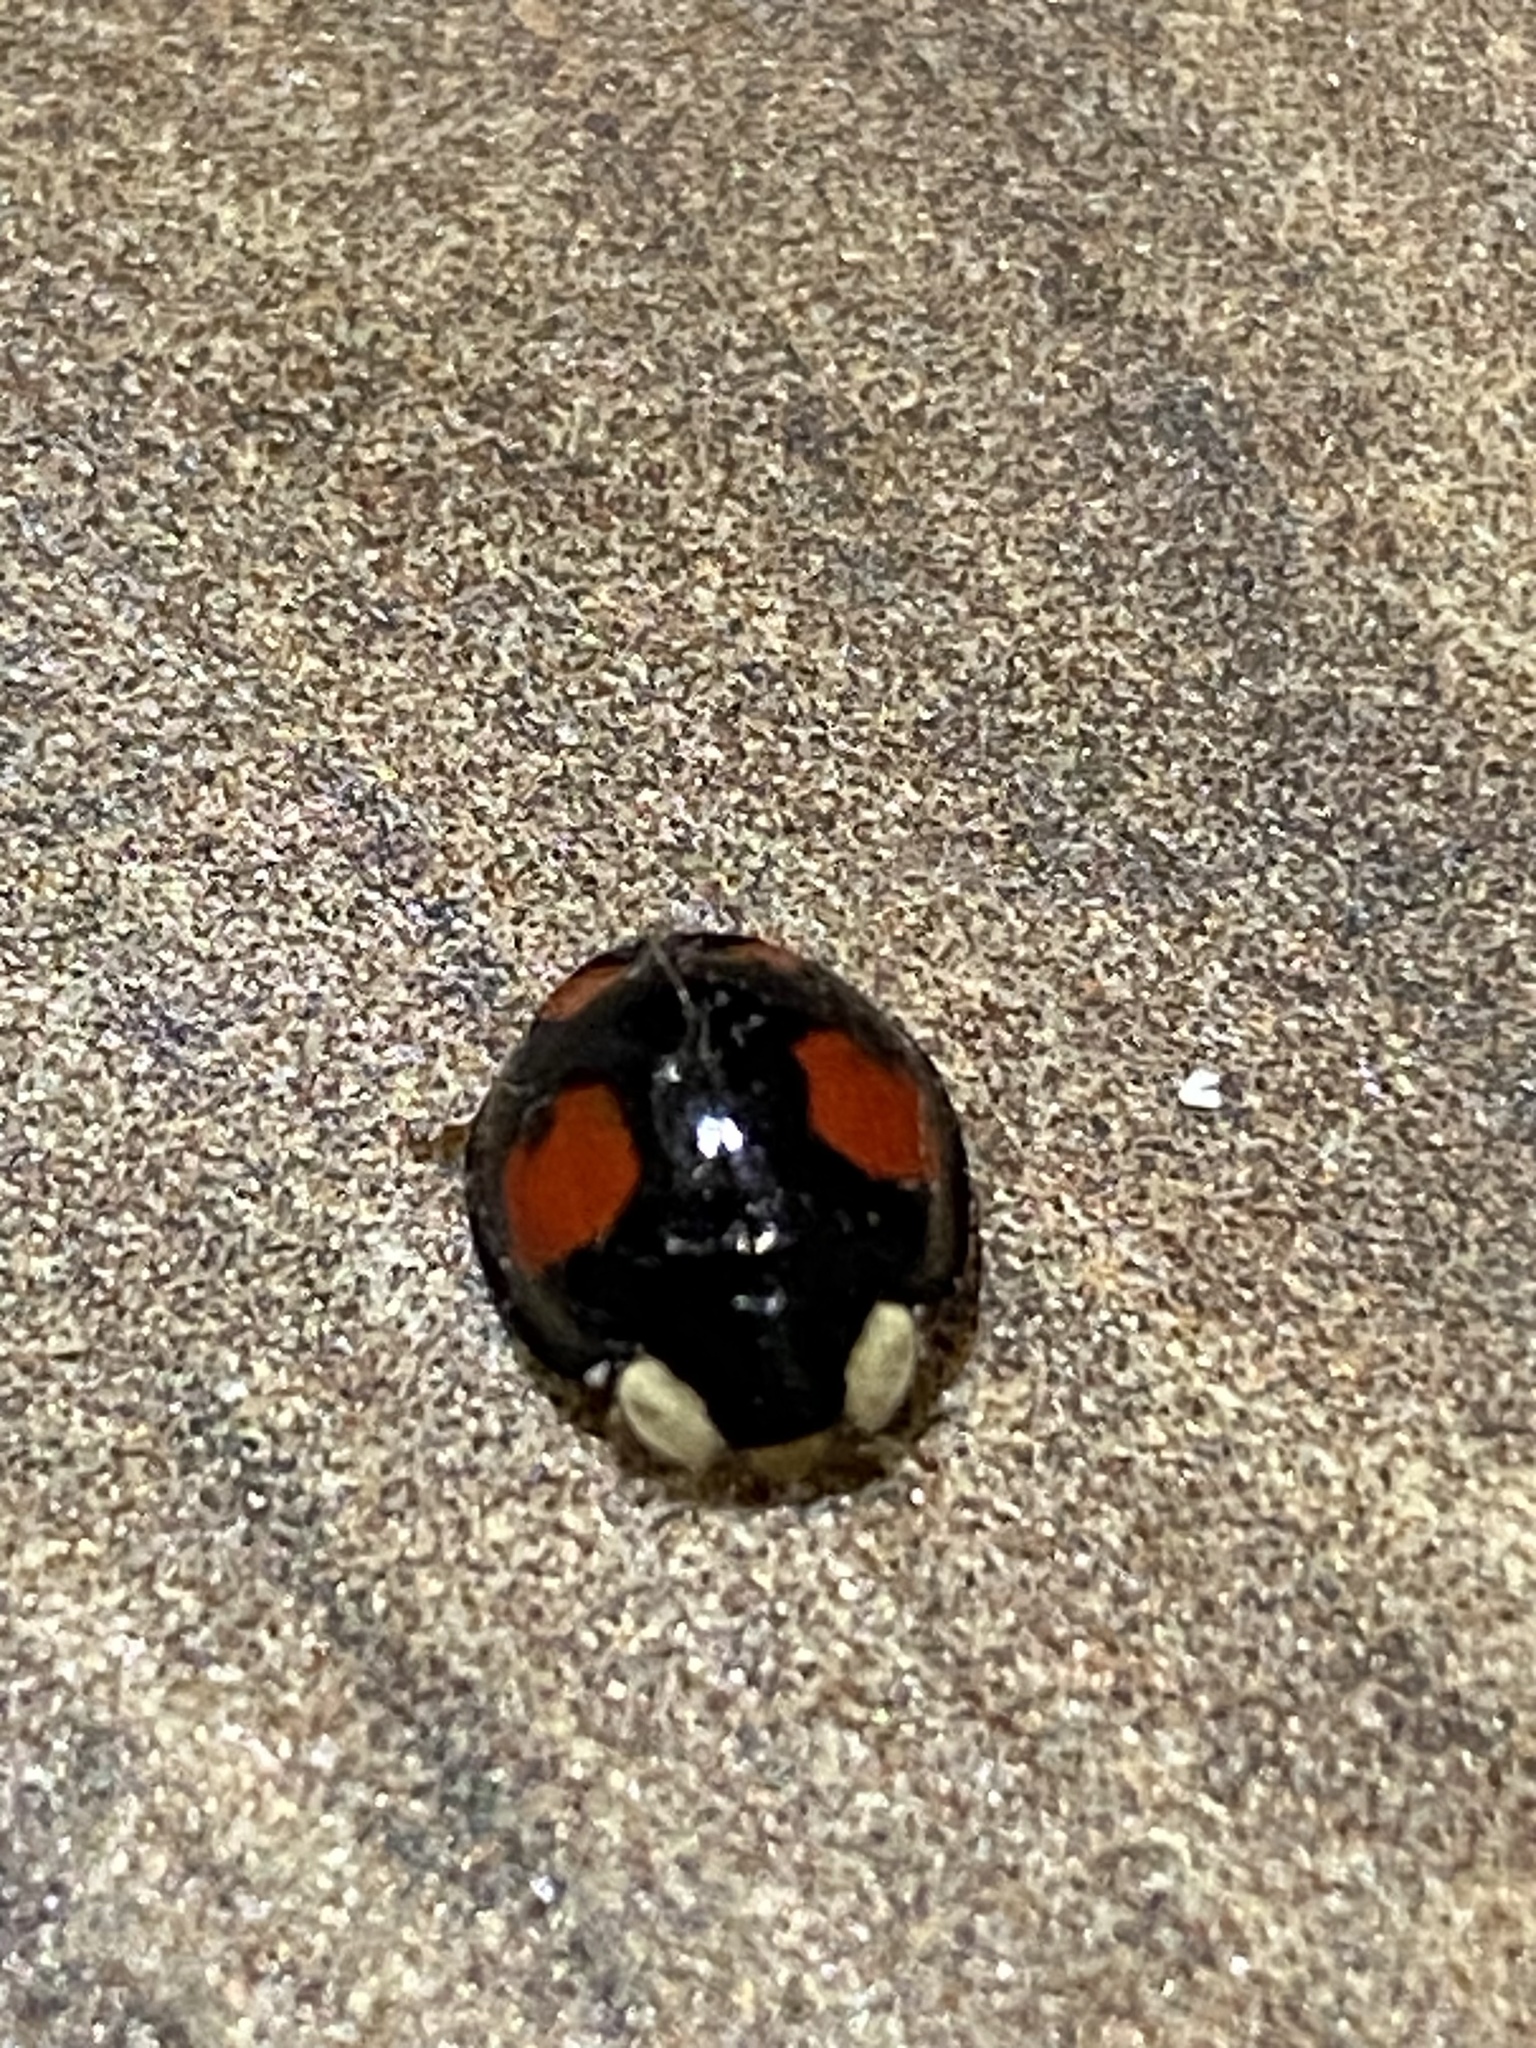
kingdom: Animalia
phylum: Arthropoda
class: Insecta
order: Coleoptera
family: Coccinellidae
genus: Harmonia
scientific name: Harmonia axyridis
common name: Harlequin ladybird
